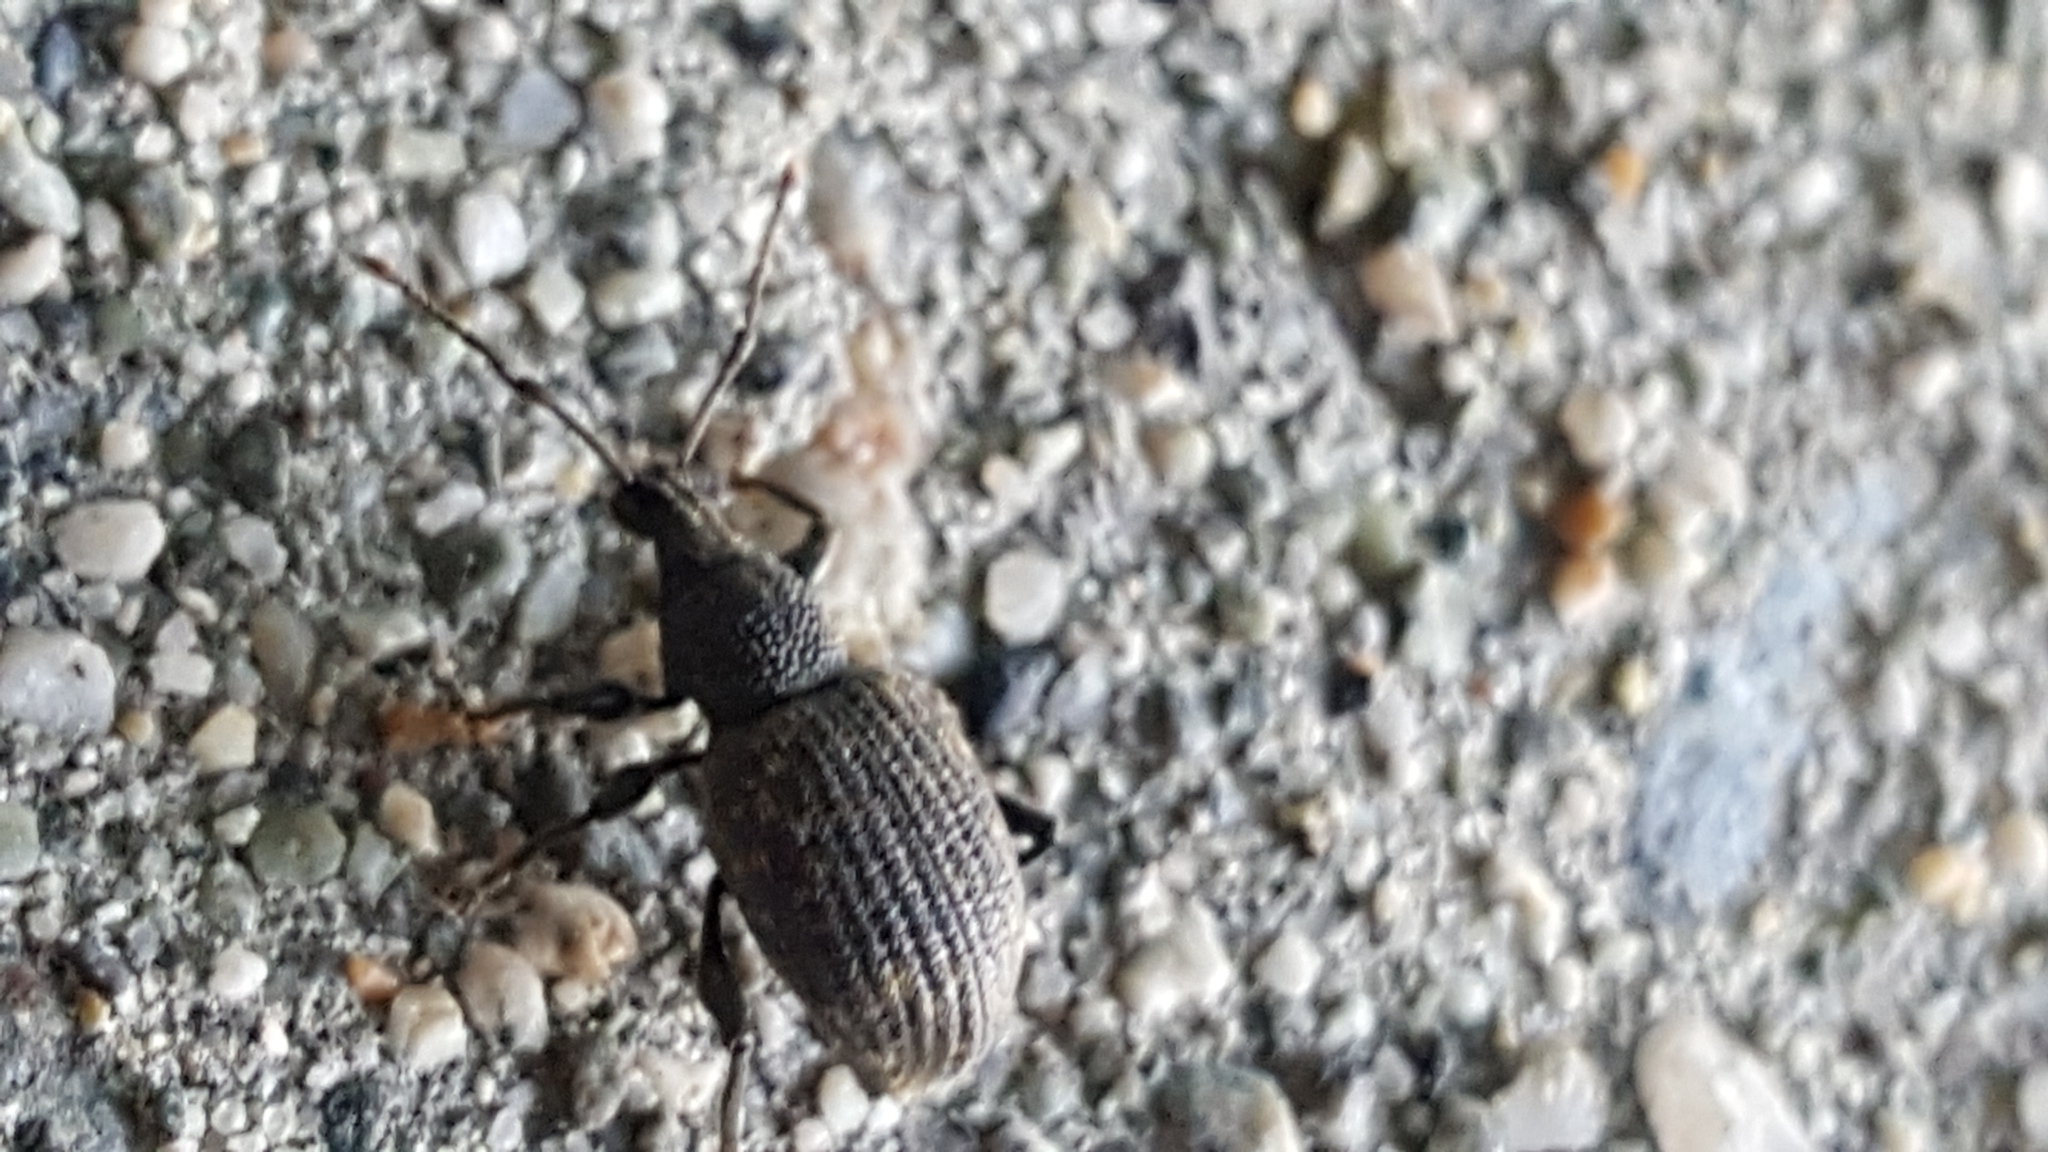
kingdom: Animalia
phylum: Arthropoda
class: Insecta
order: Coleoptera
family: Curculionidae
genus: Otiorhynchus
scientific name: Otiorhynchus sulcatus
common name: Black vine weevil
